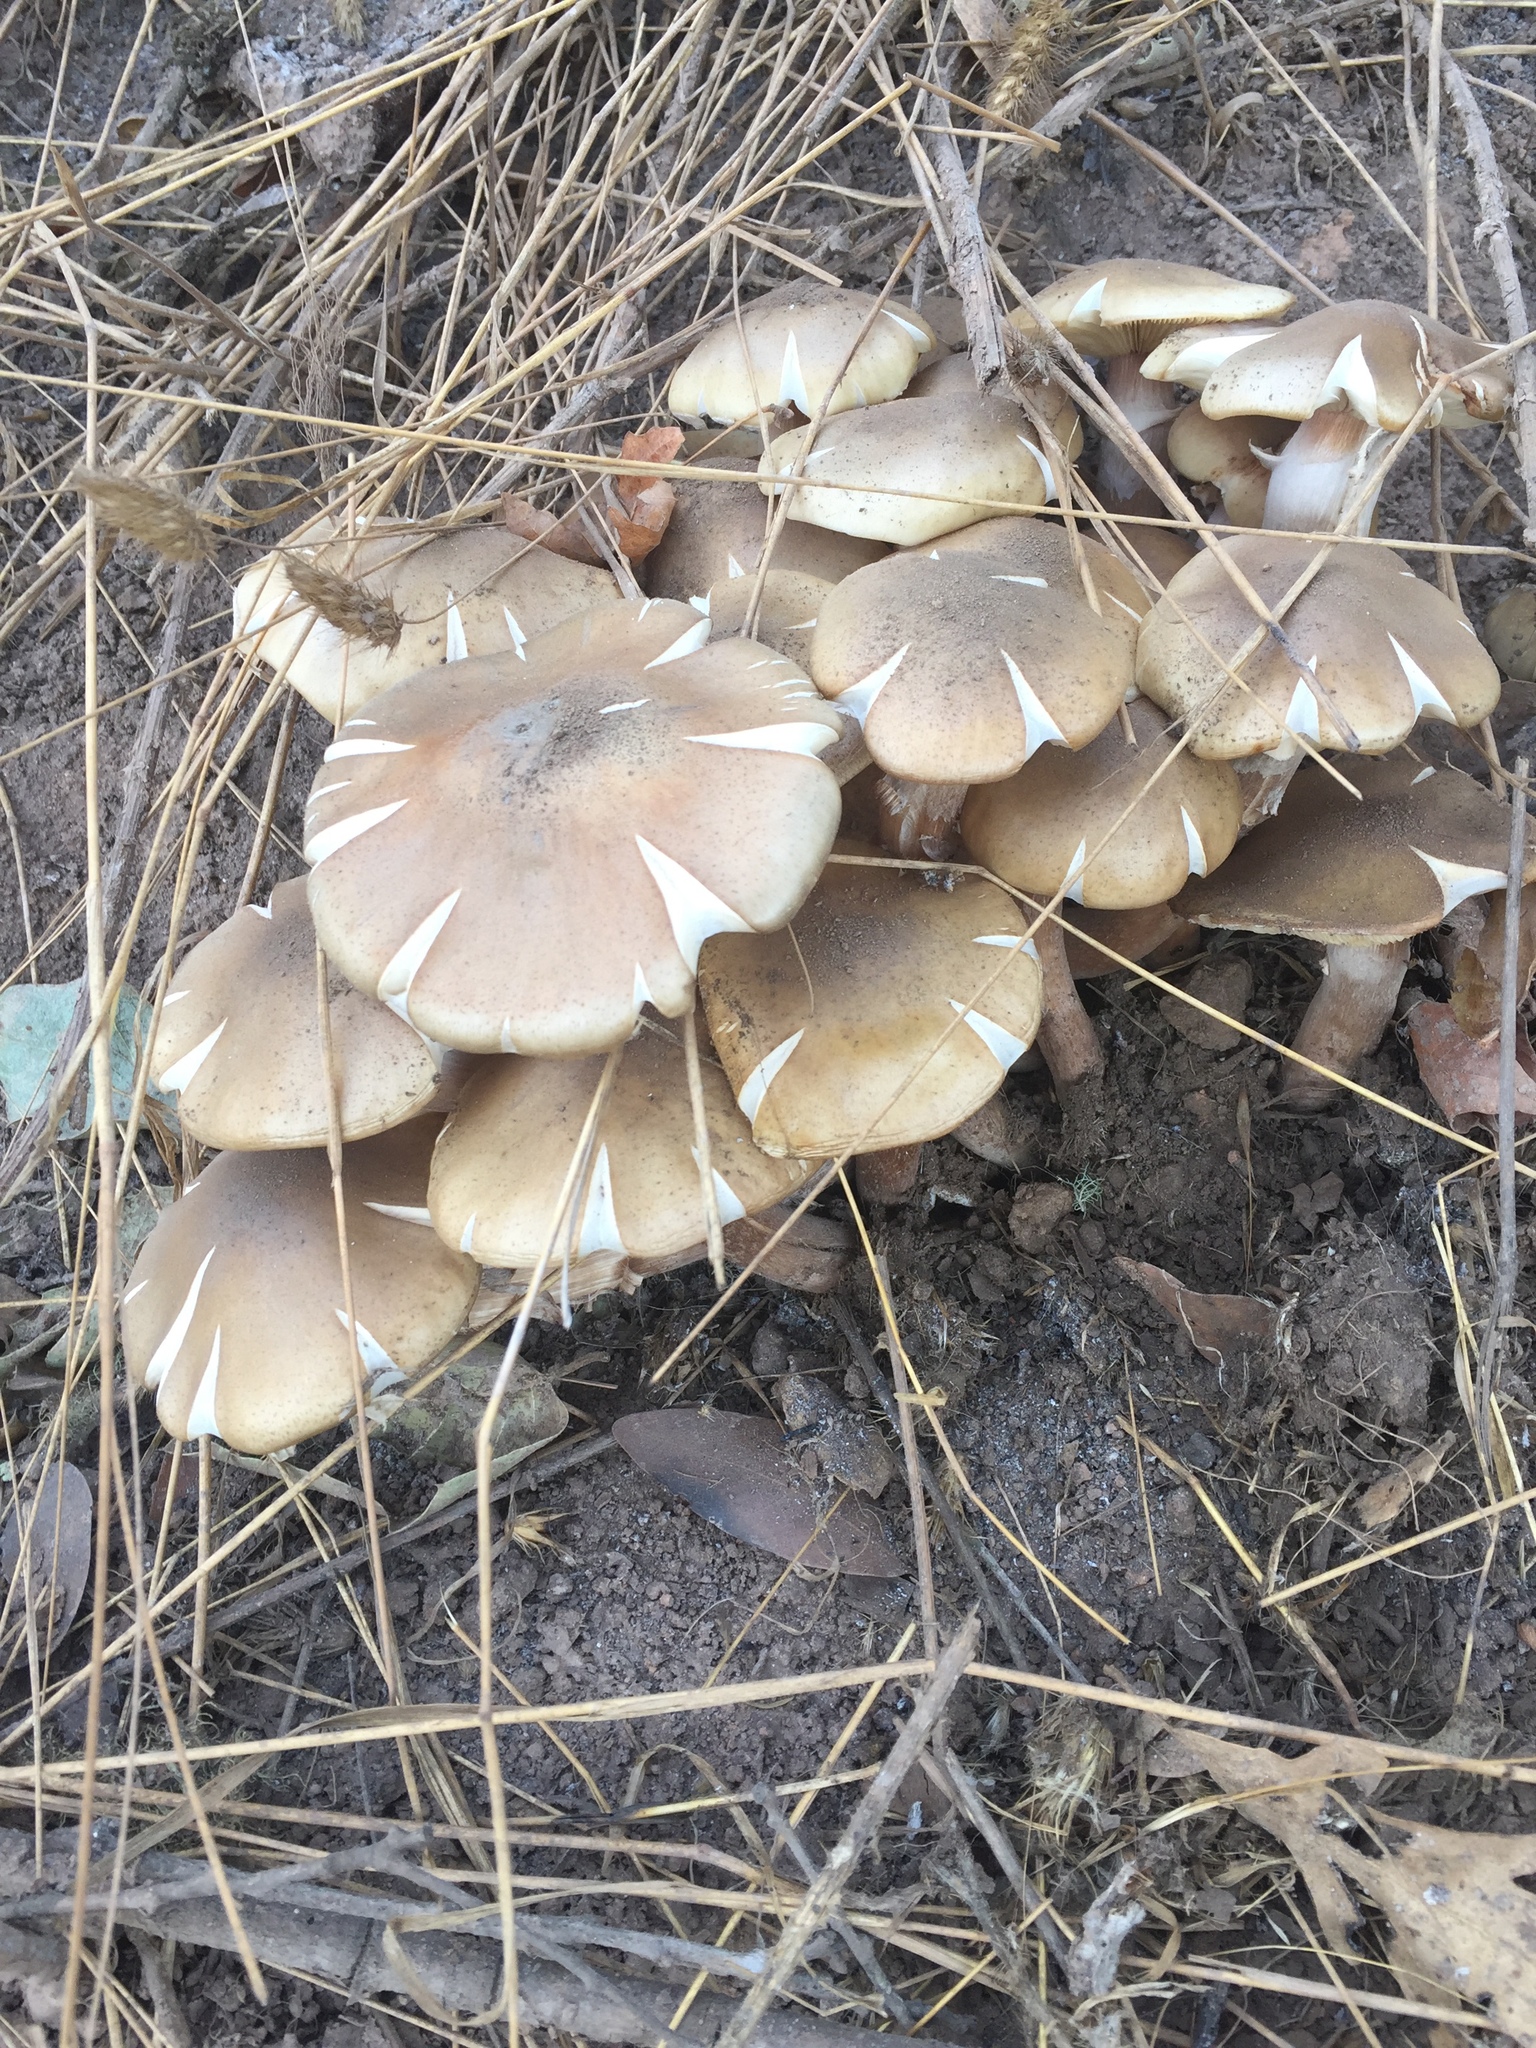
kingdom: Fungi
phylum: Basidiomycota
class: Agaricomycetes
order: Agaricales
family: Physalacriaceae
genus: Armillaria
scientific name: Armillaria mellea
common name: Honey fungus
